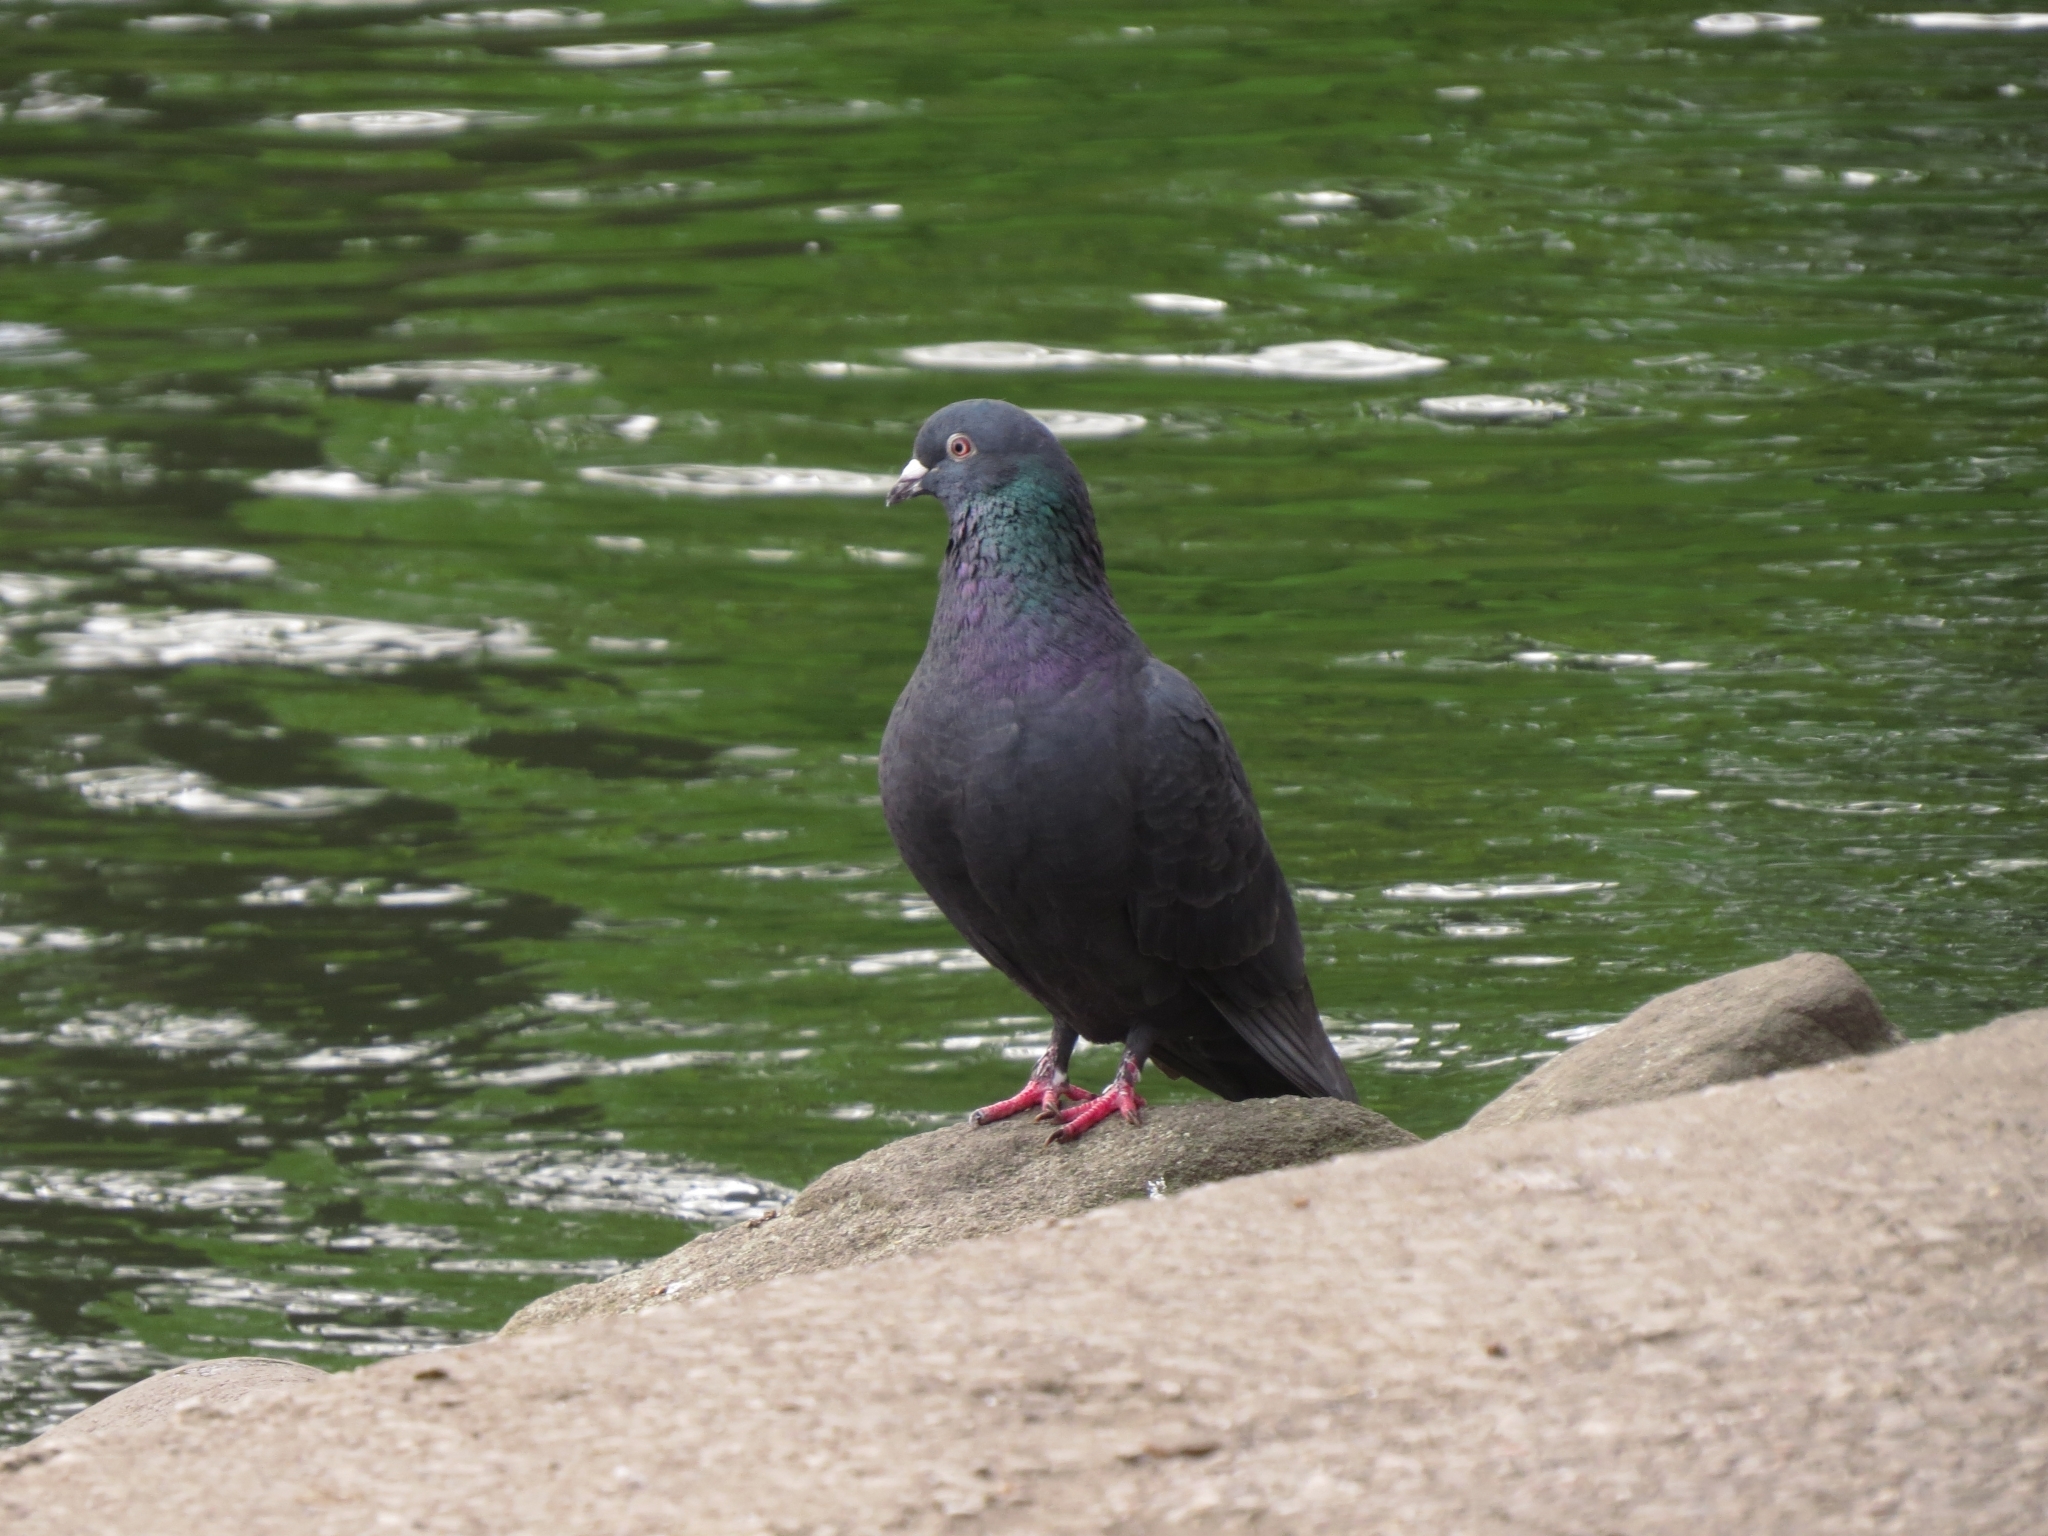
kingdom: Animalia
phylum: Chordata
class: Aves
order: Columbiformes
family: Columbidae
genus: Columba
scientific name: Columba livia
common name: Rock pigeon
